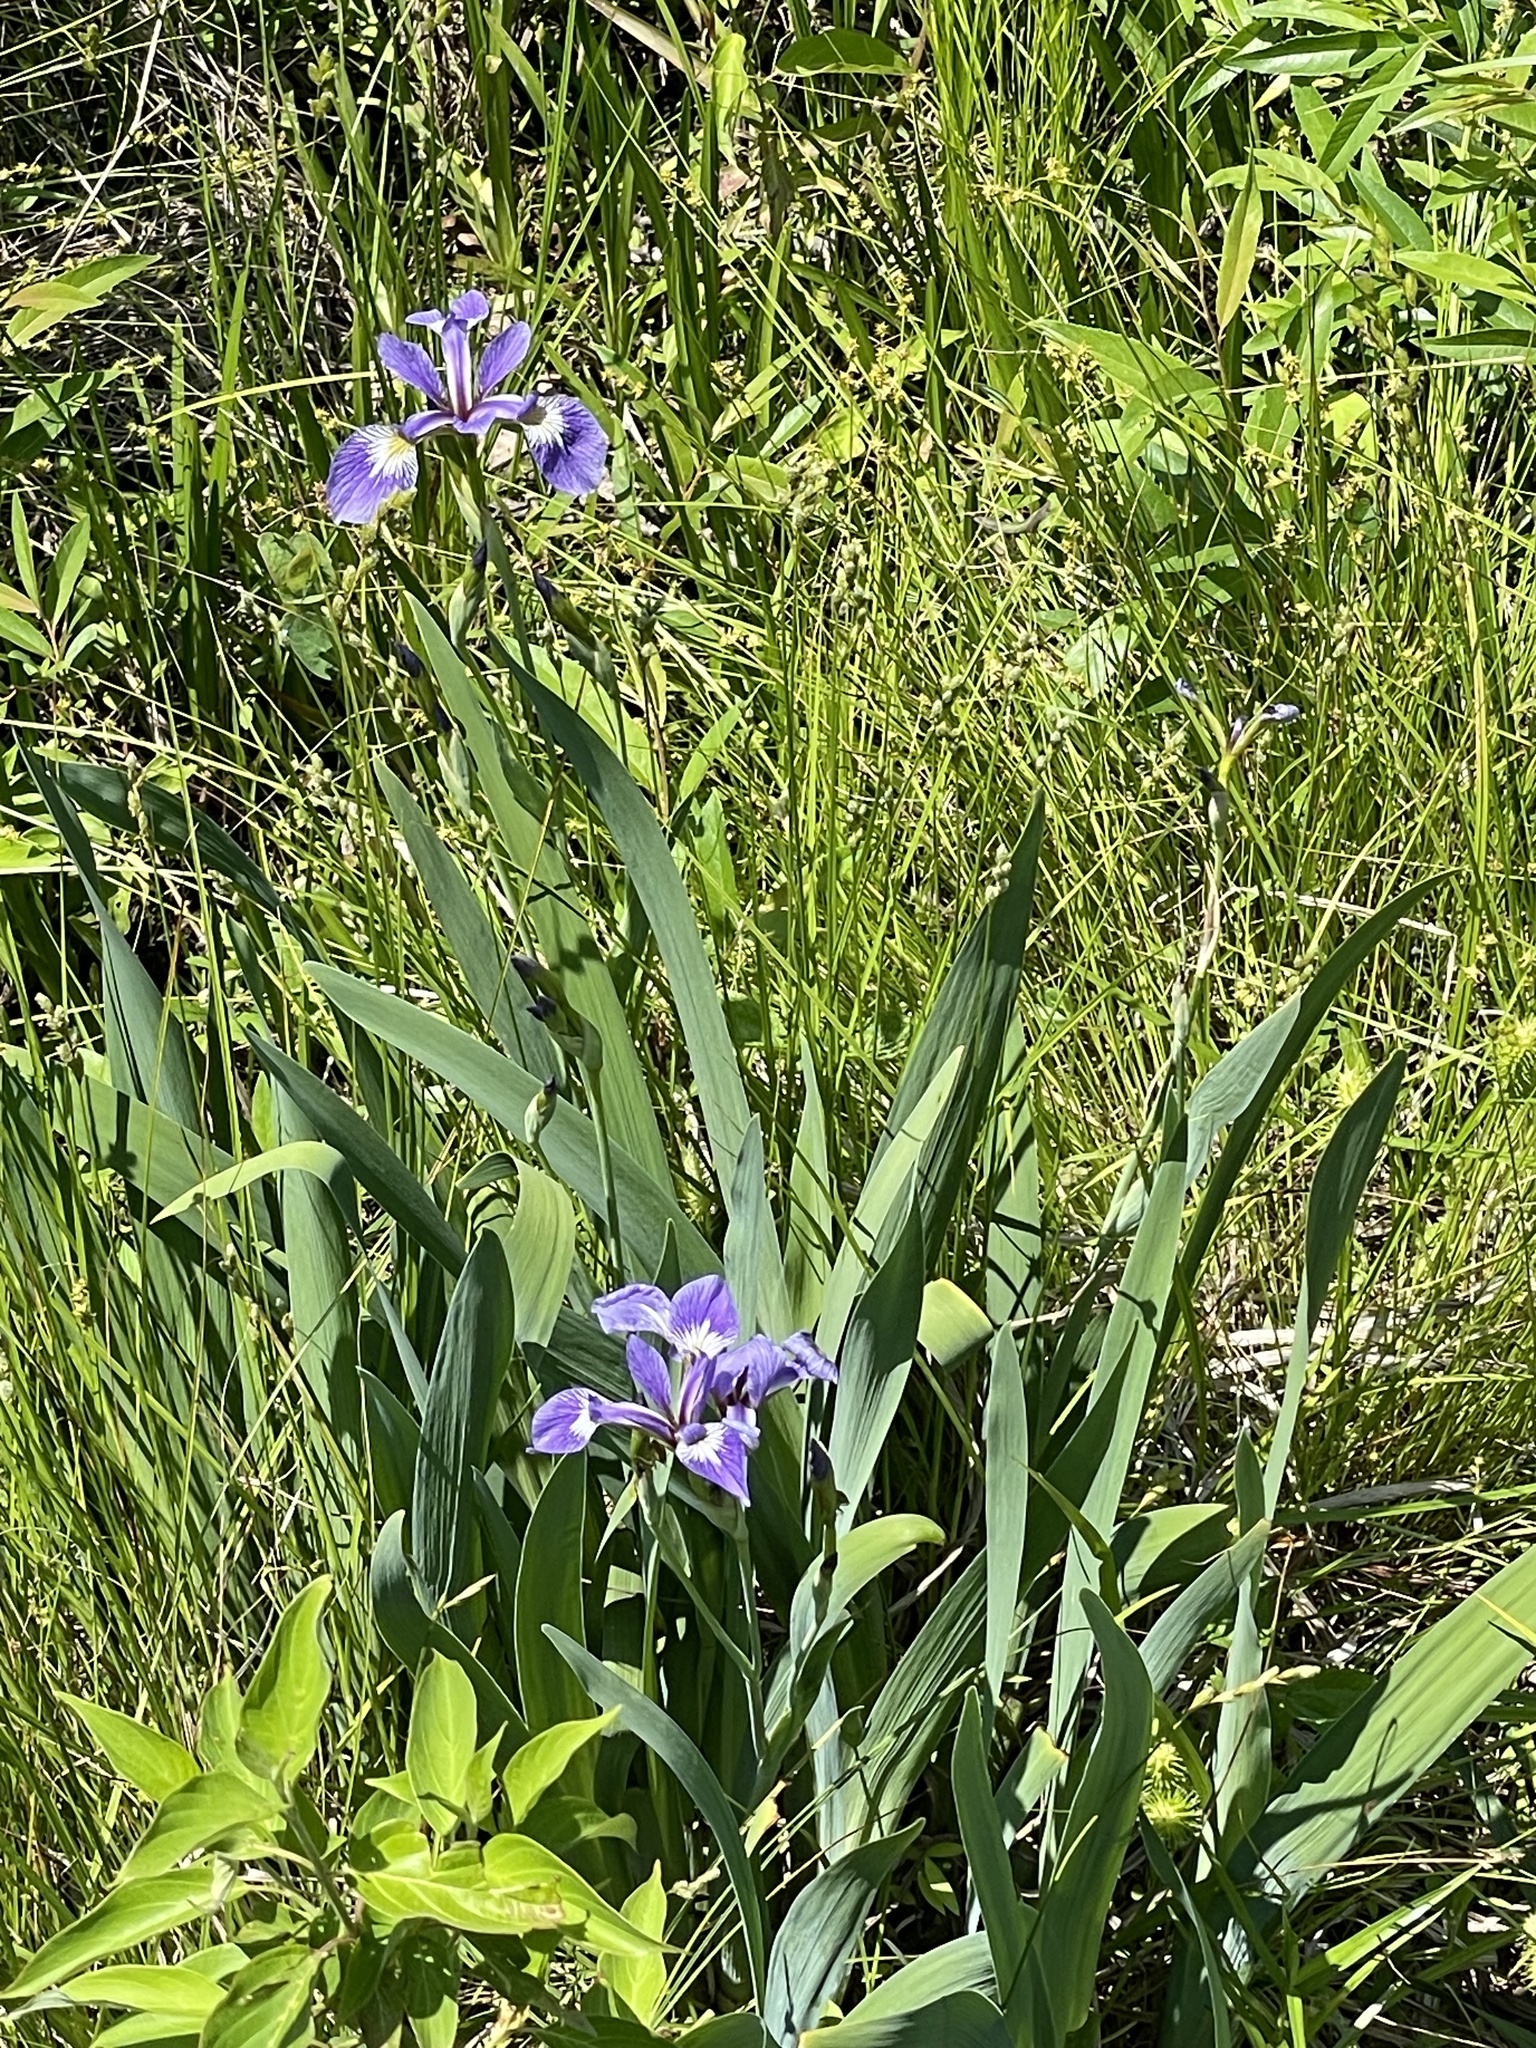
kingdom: Plantae
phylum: Tracheophyta
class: Liliopsida
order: Asparagales
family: Iridaceae
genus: Iris
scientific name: Iris versicolor
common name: Purple iris
